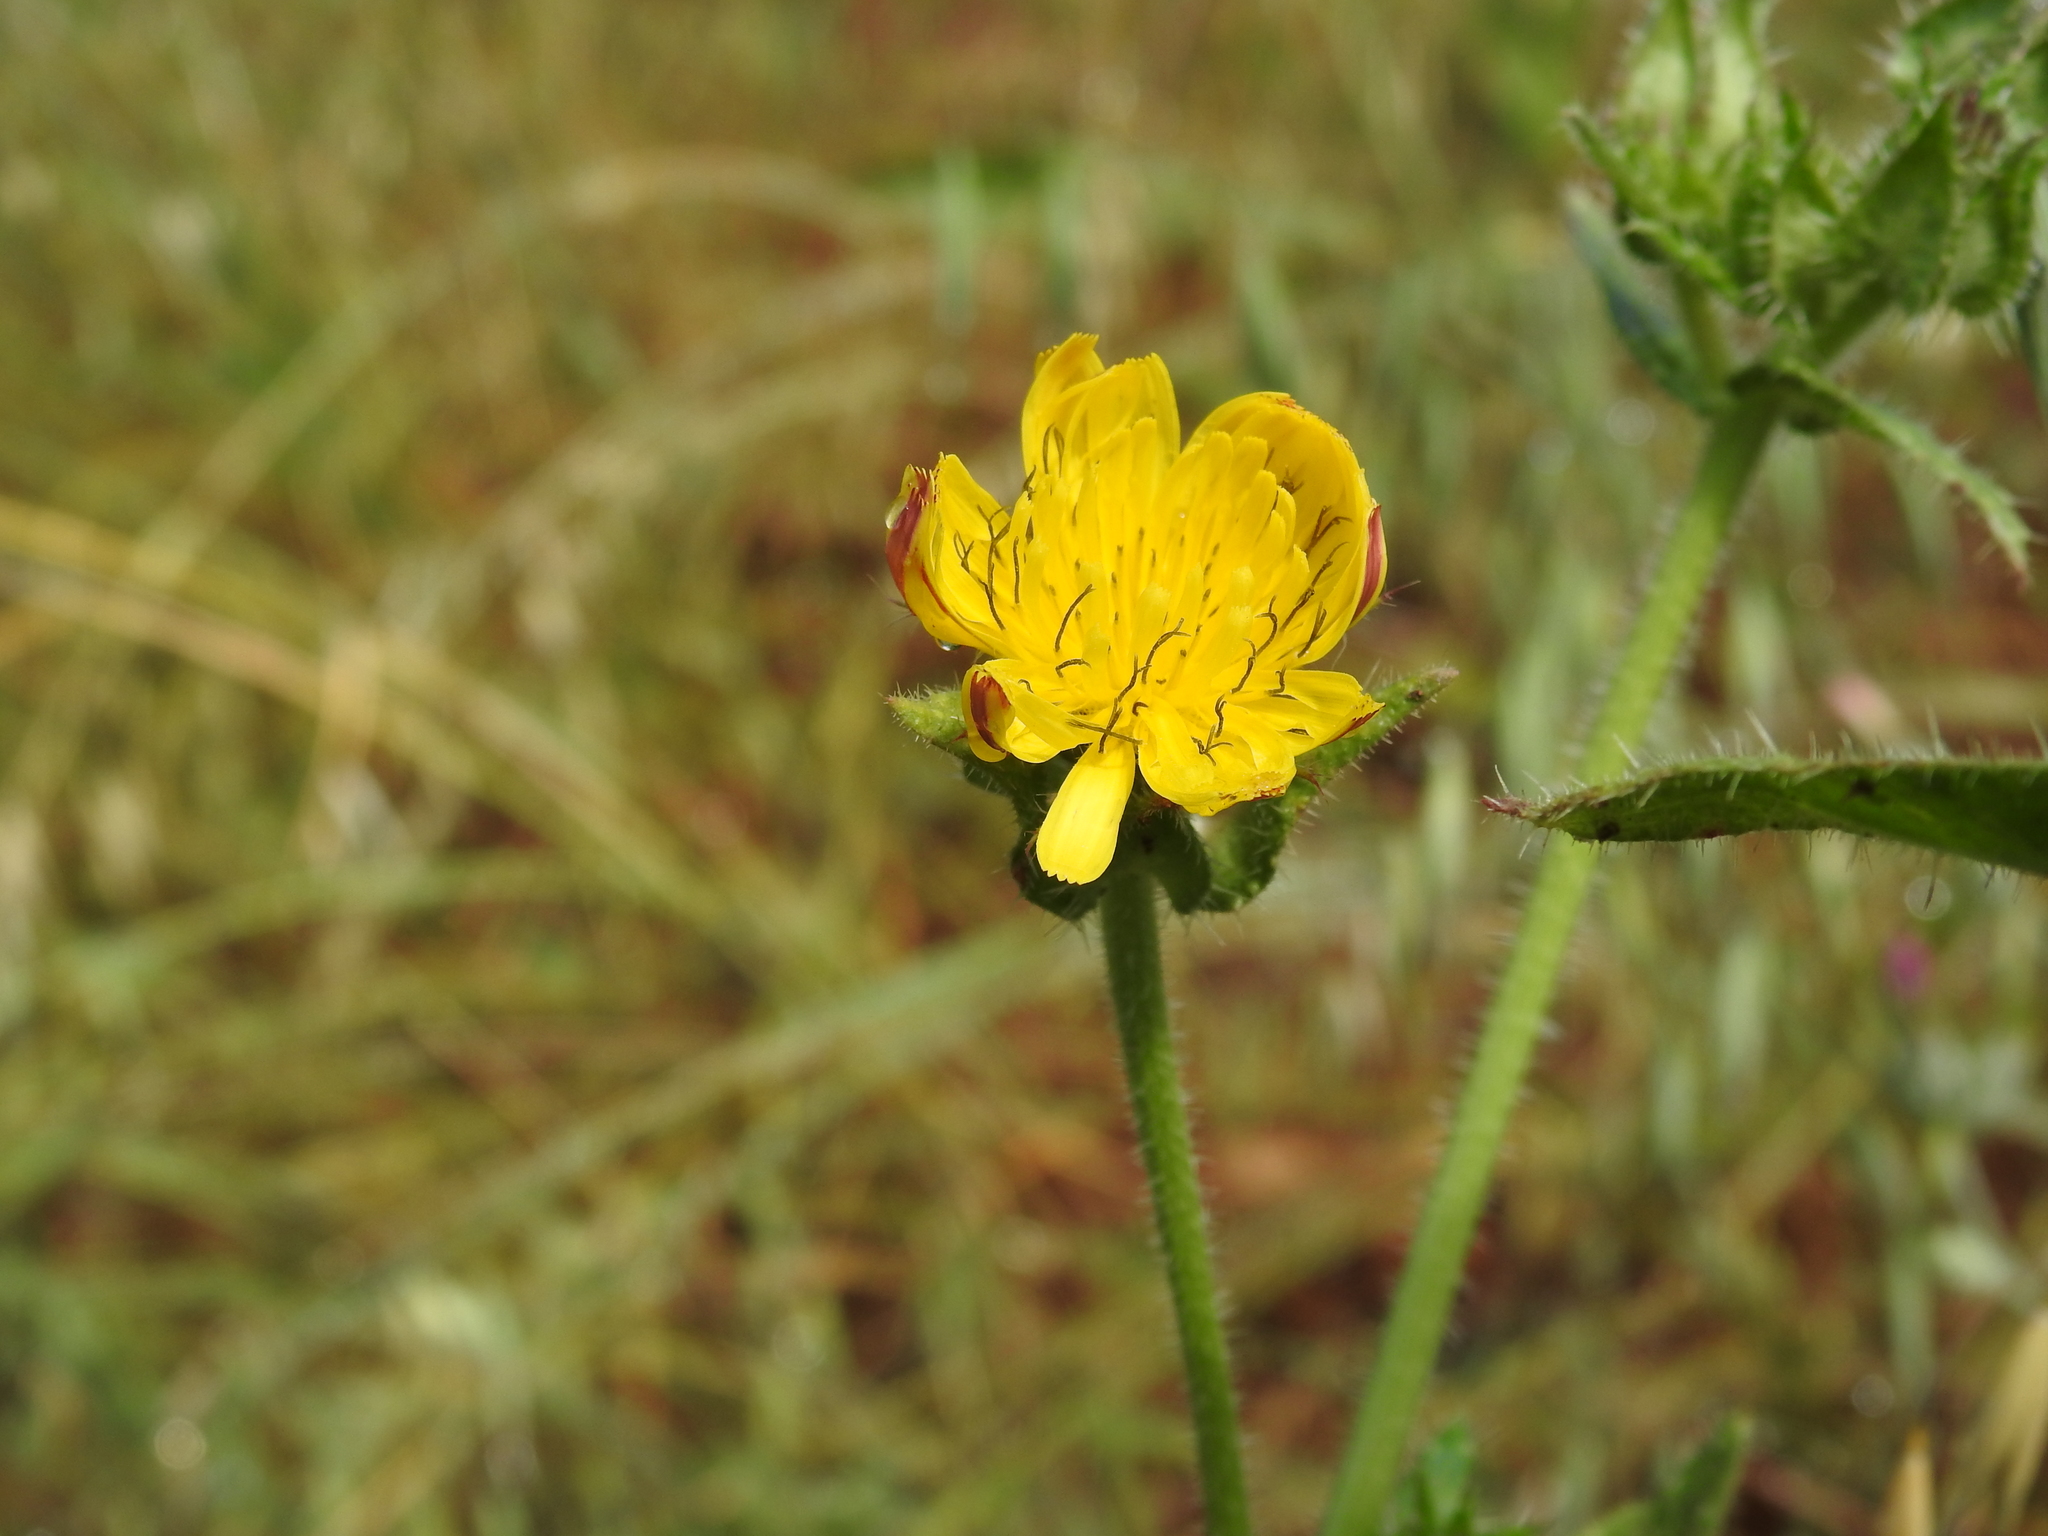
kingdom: Plantae
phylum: Tracheophyta
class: Magnoliopsida
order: Asterales
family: Asteraceae
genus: Helminthotheca
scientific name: Helminthotheca echioides
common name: Ox-tongue
